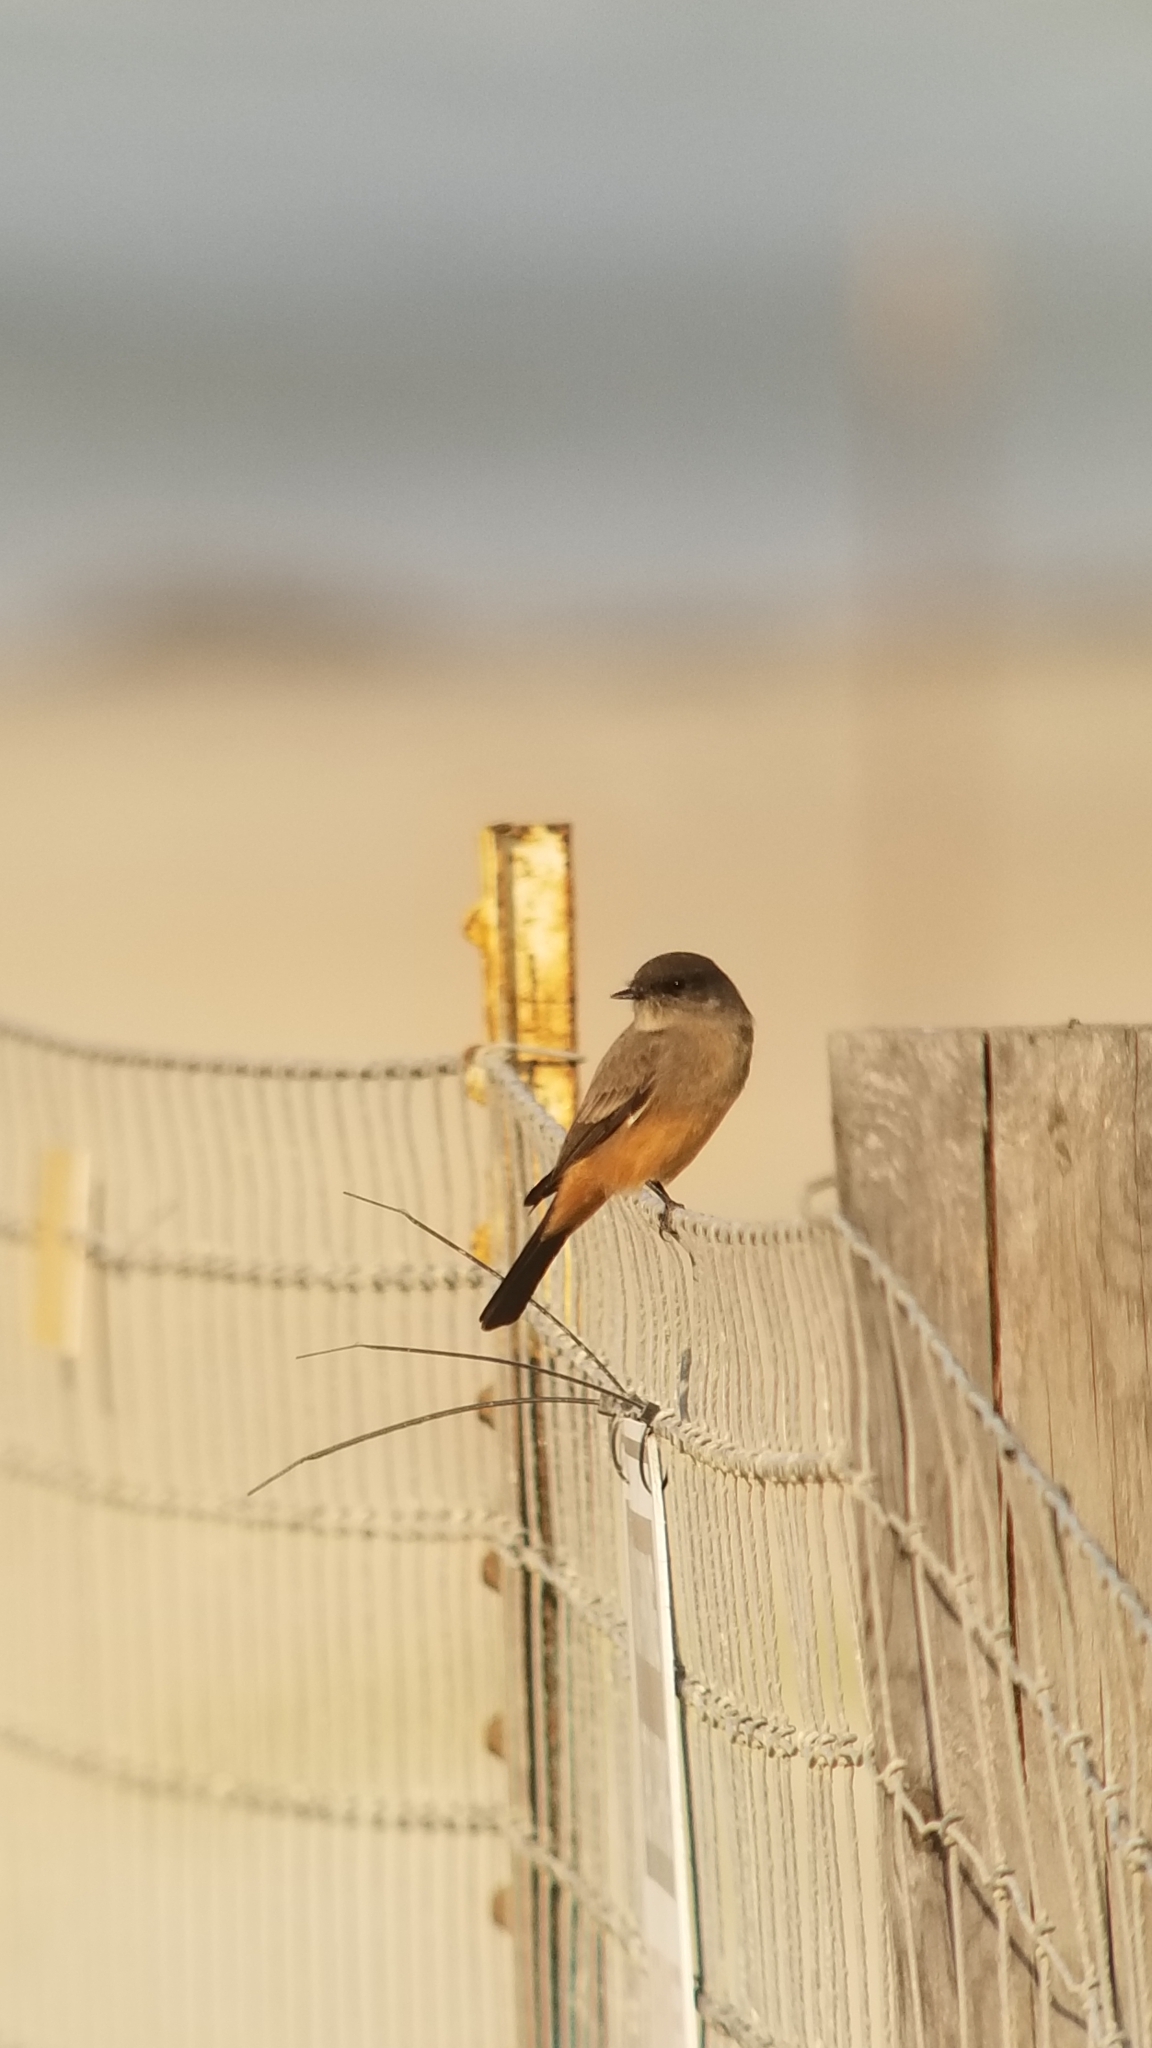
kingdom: Animalia
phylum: Chordata
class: Aves
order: Passeriformes
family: Tyrannidae
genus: Sayornis
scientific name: Sayornis saya
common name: Say's phoebe
